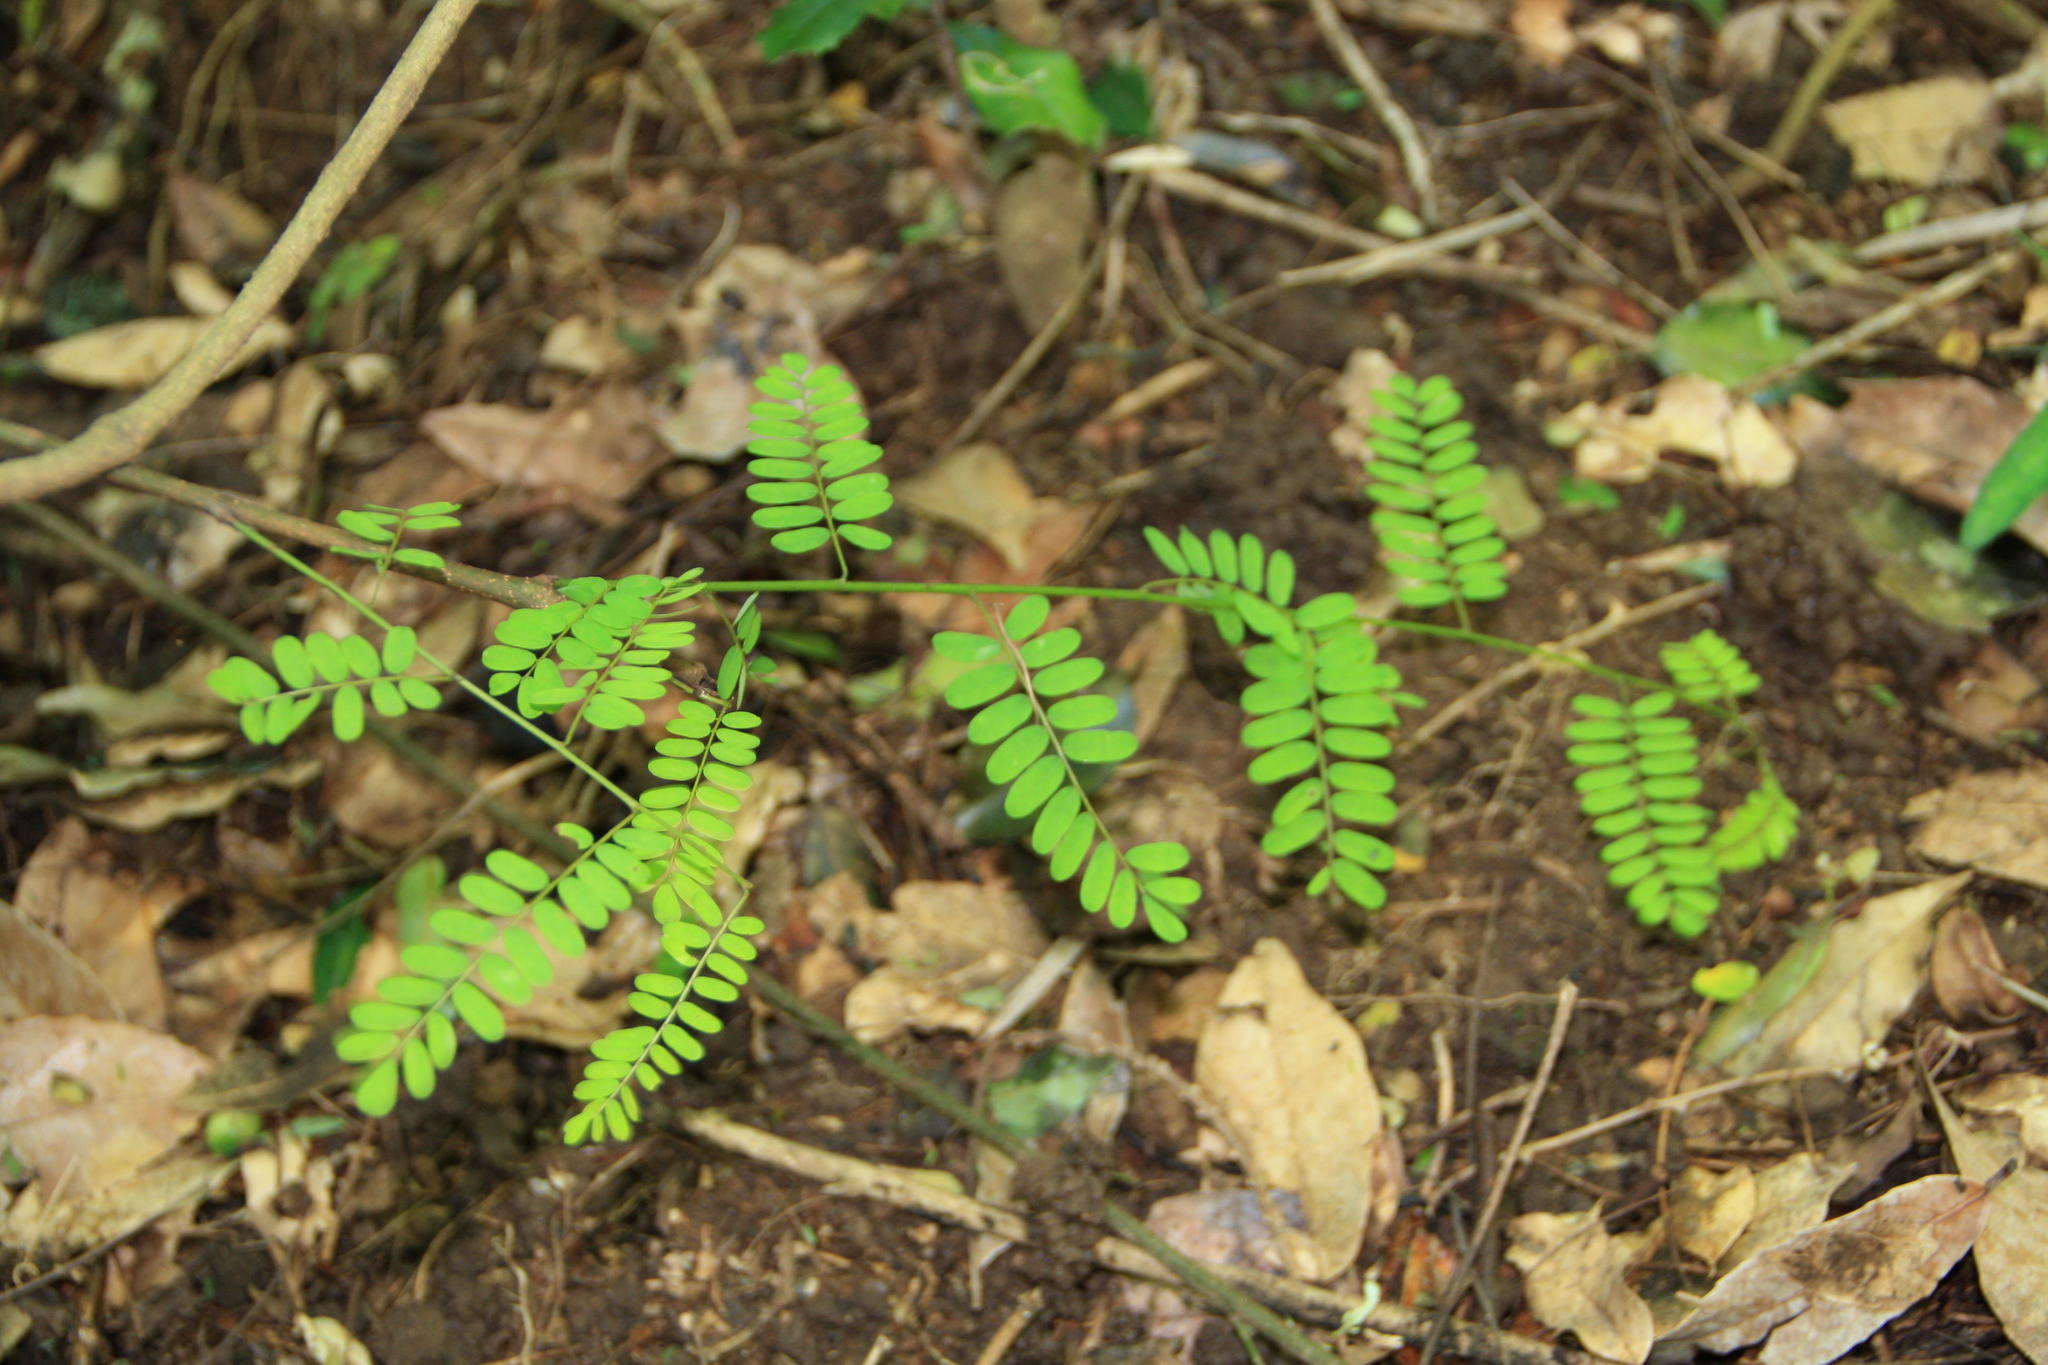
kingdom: Plantae
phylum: Tracheophyta
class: Magnoliopsida
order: Fabales
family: Fabaceae
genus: Dalbergia
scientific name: Dalbergia armata
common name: Hluhluwe climber
